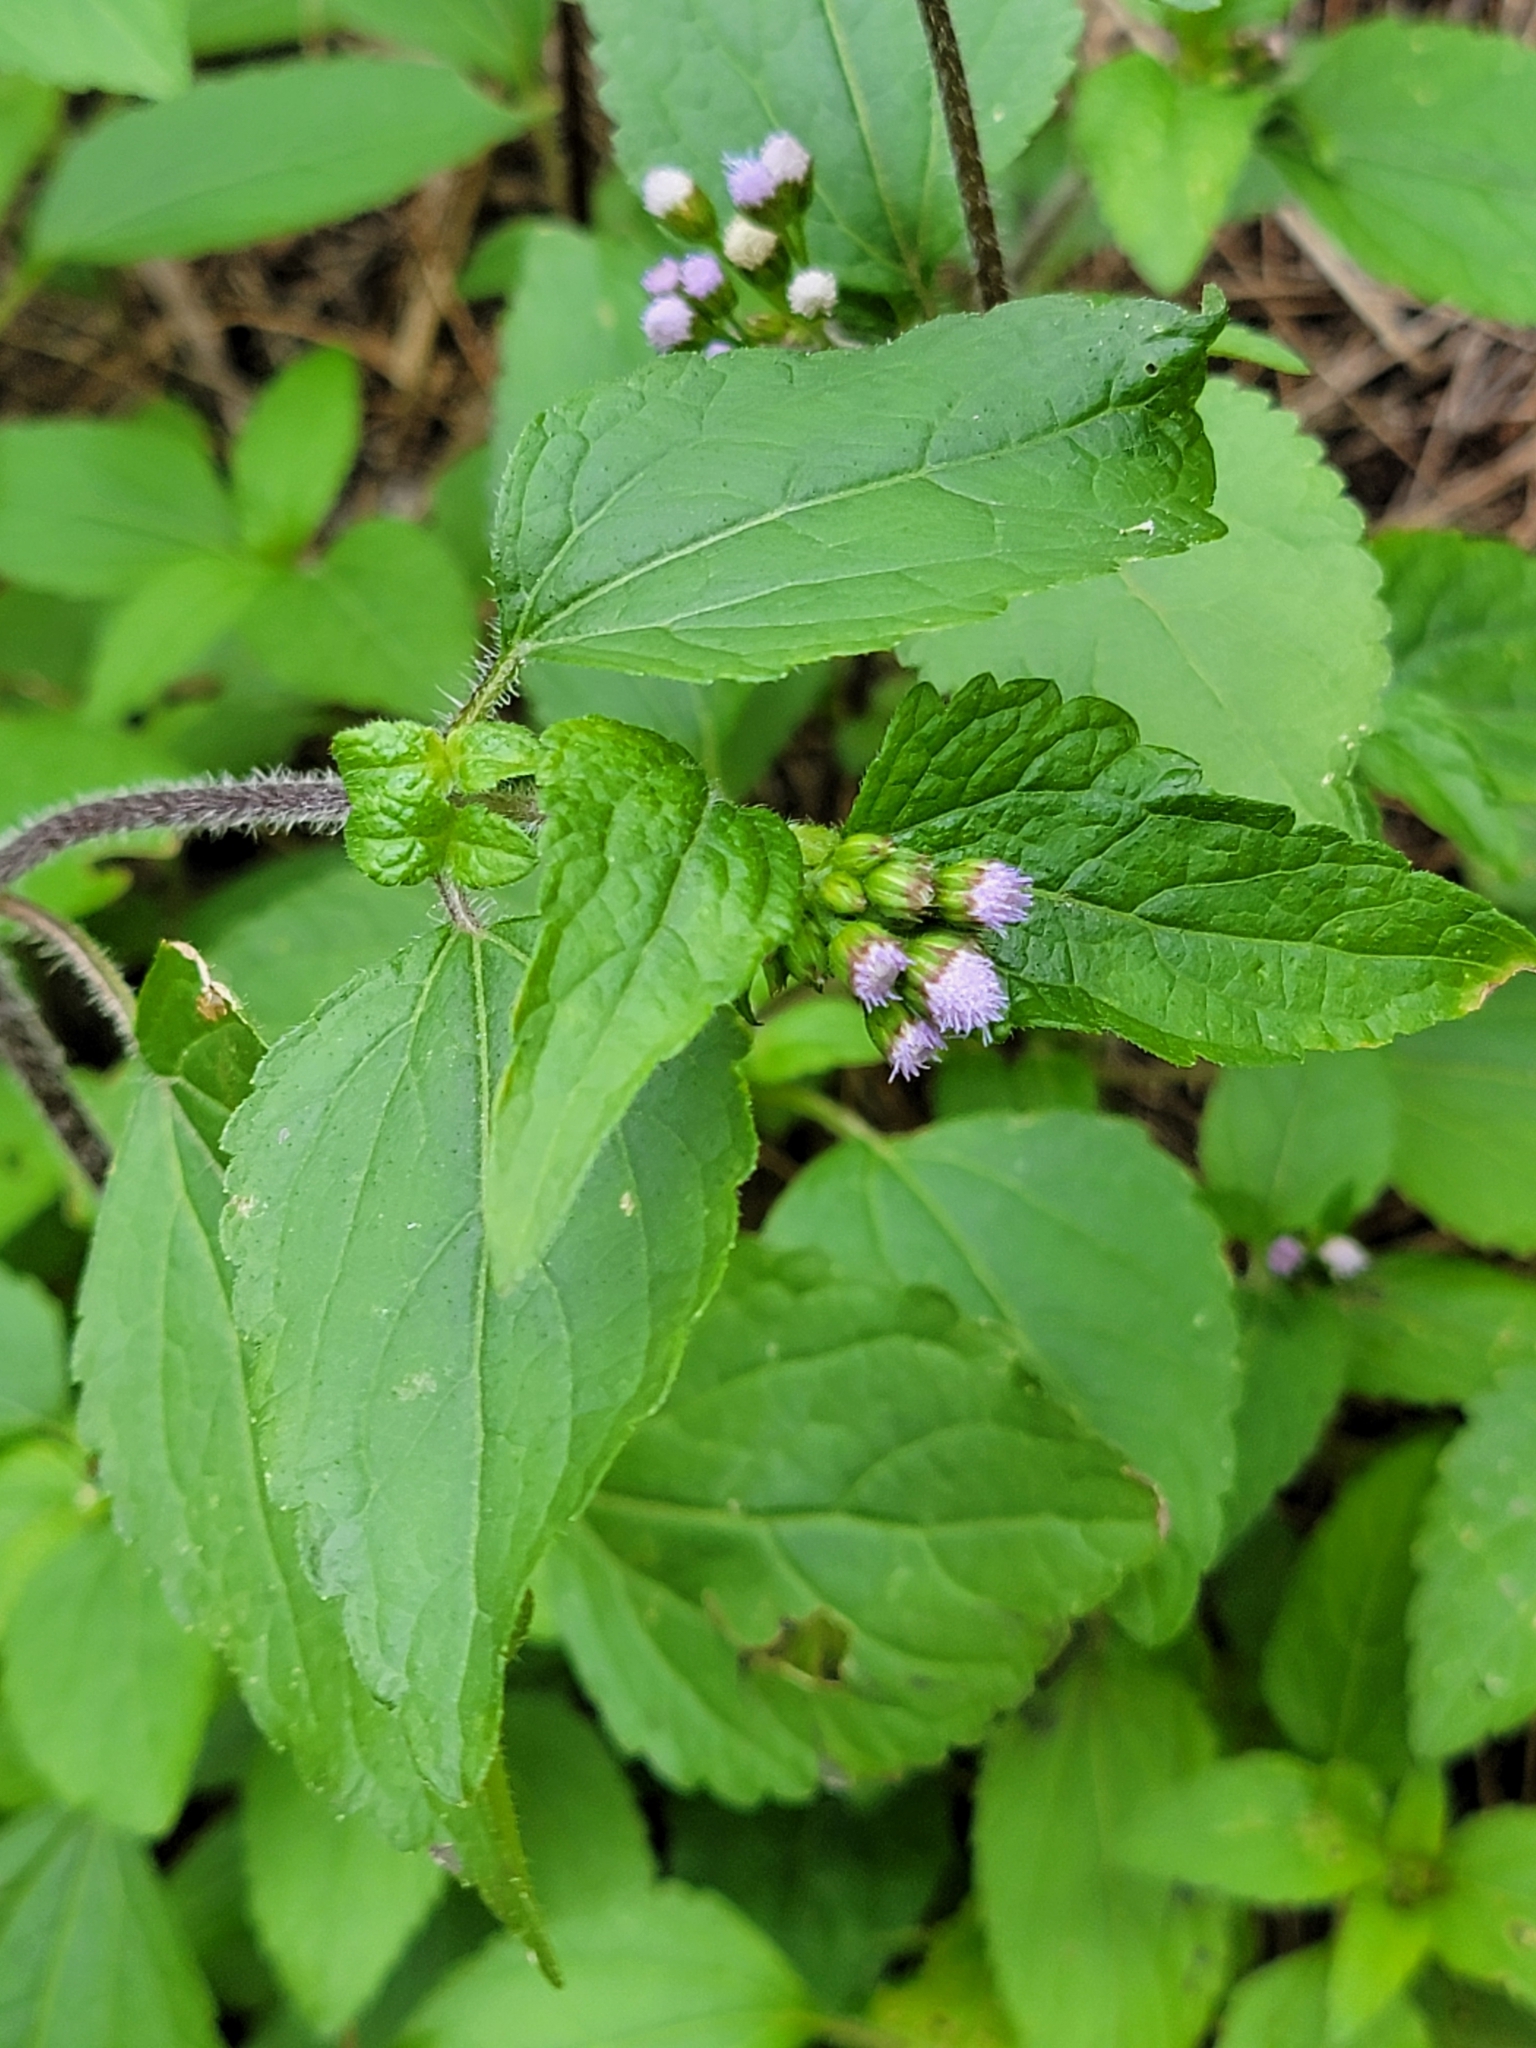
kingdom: Plantae
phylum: Tracheophyta
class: Magnoliopsida
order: Asterales
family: Asteraceae
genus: Ageratum
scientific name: Ageratum conyzoides
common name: Tropical whiteweed
